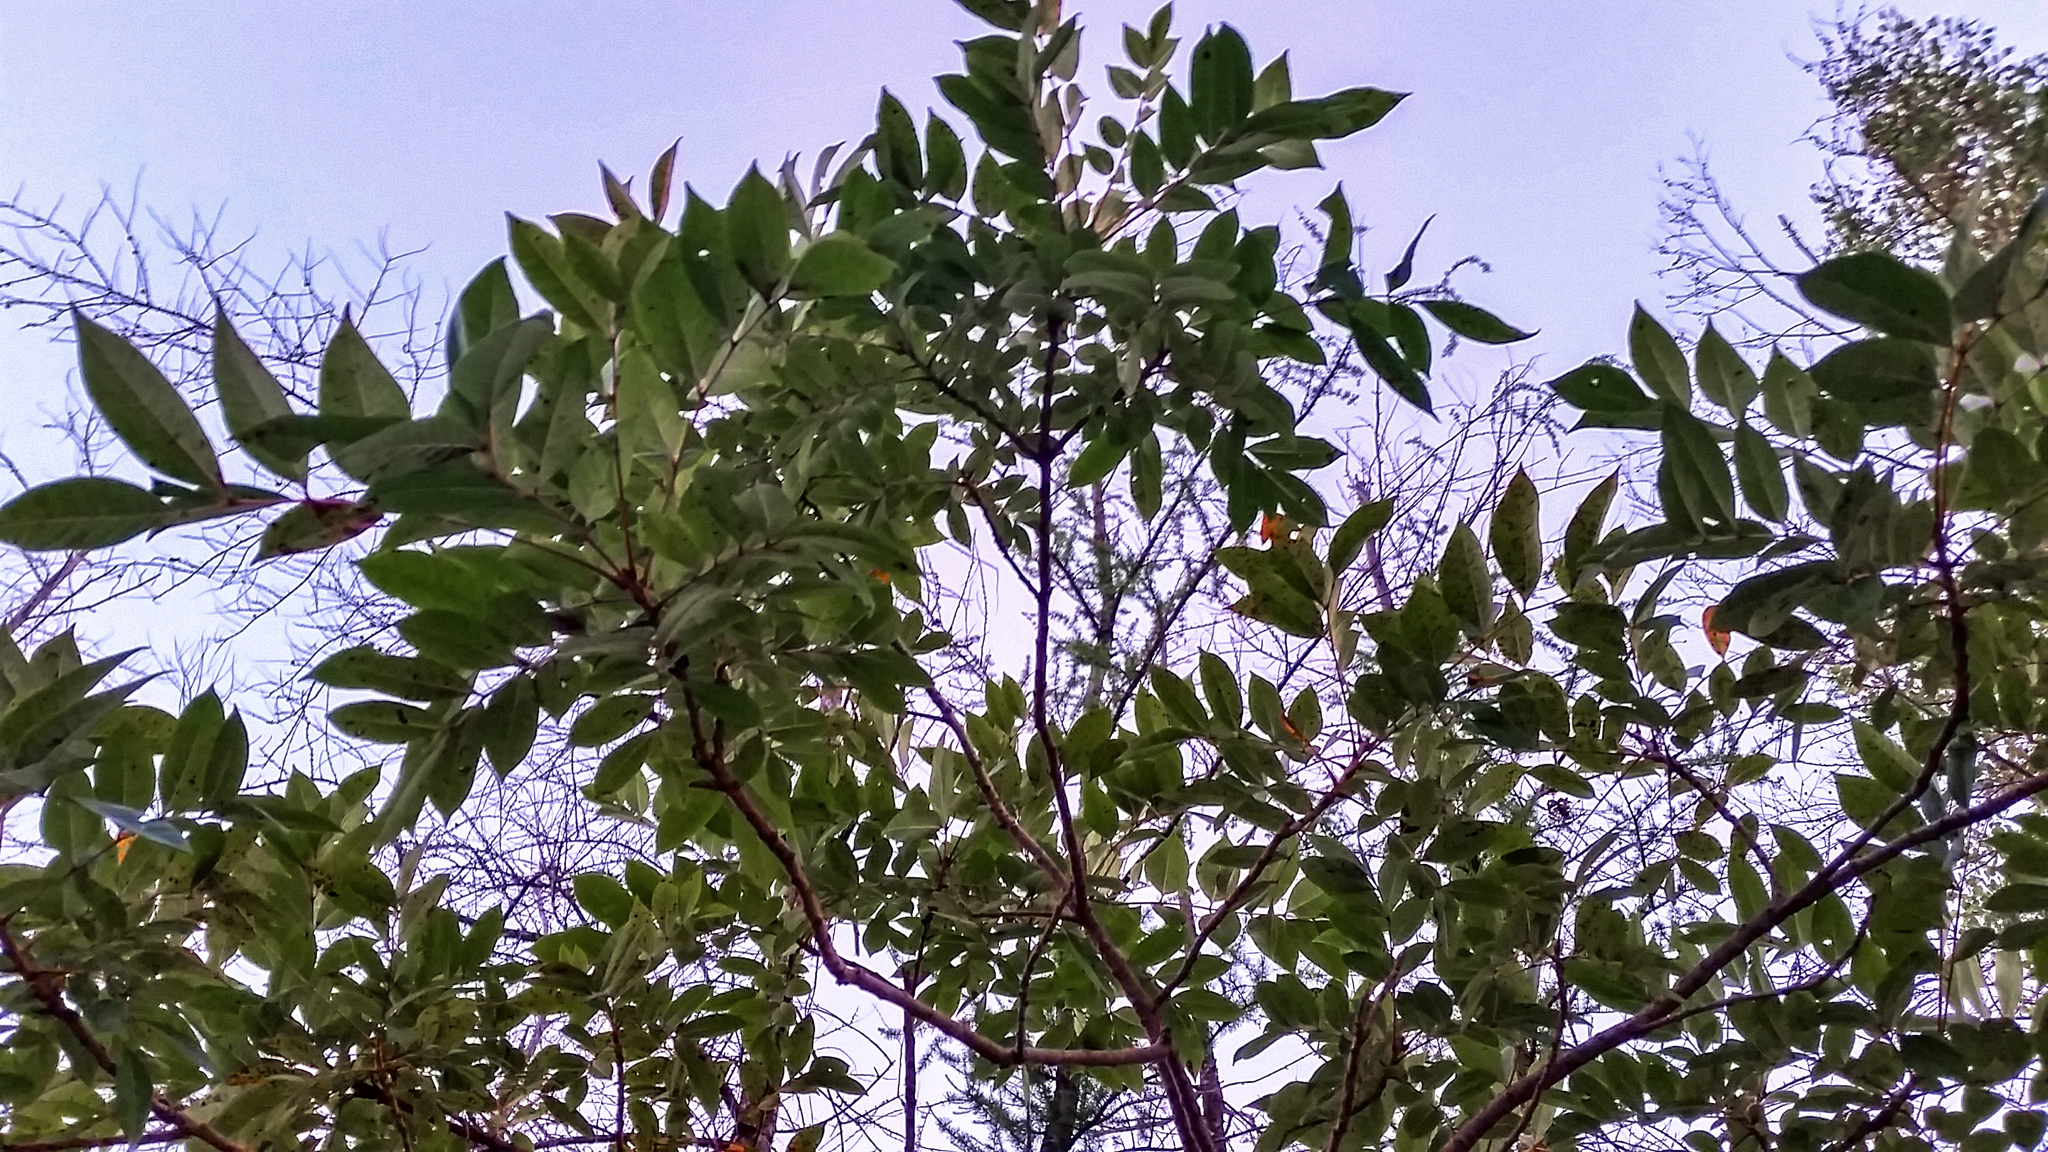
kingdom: Plantae
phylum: Tracheophyta
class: Magnoliopsida
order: Sapindales
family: Anacardiaceae
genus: Toxicodendron
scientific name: Toxicodendron vernix
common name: Poison sumac
